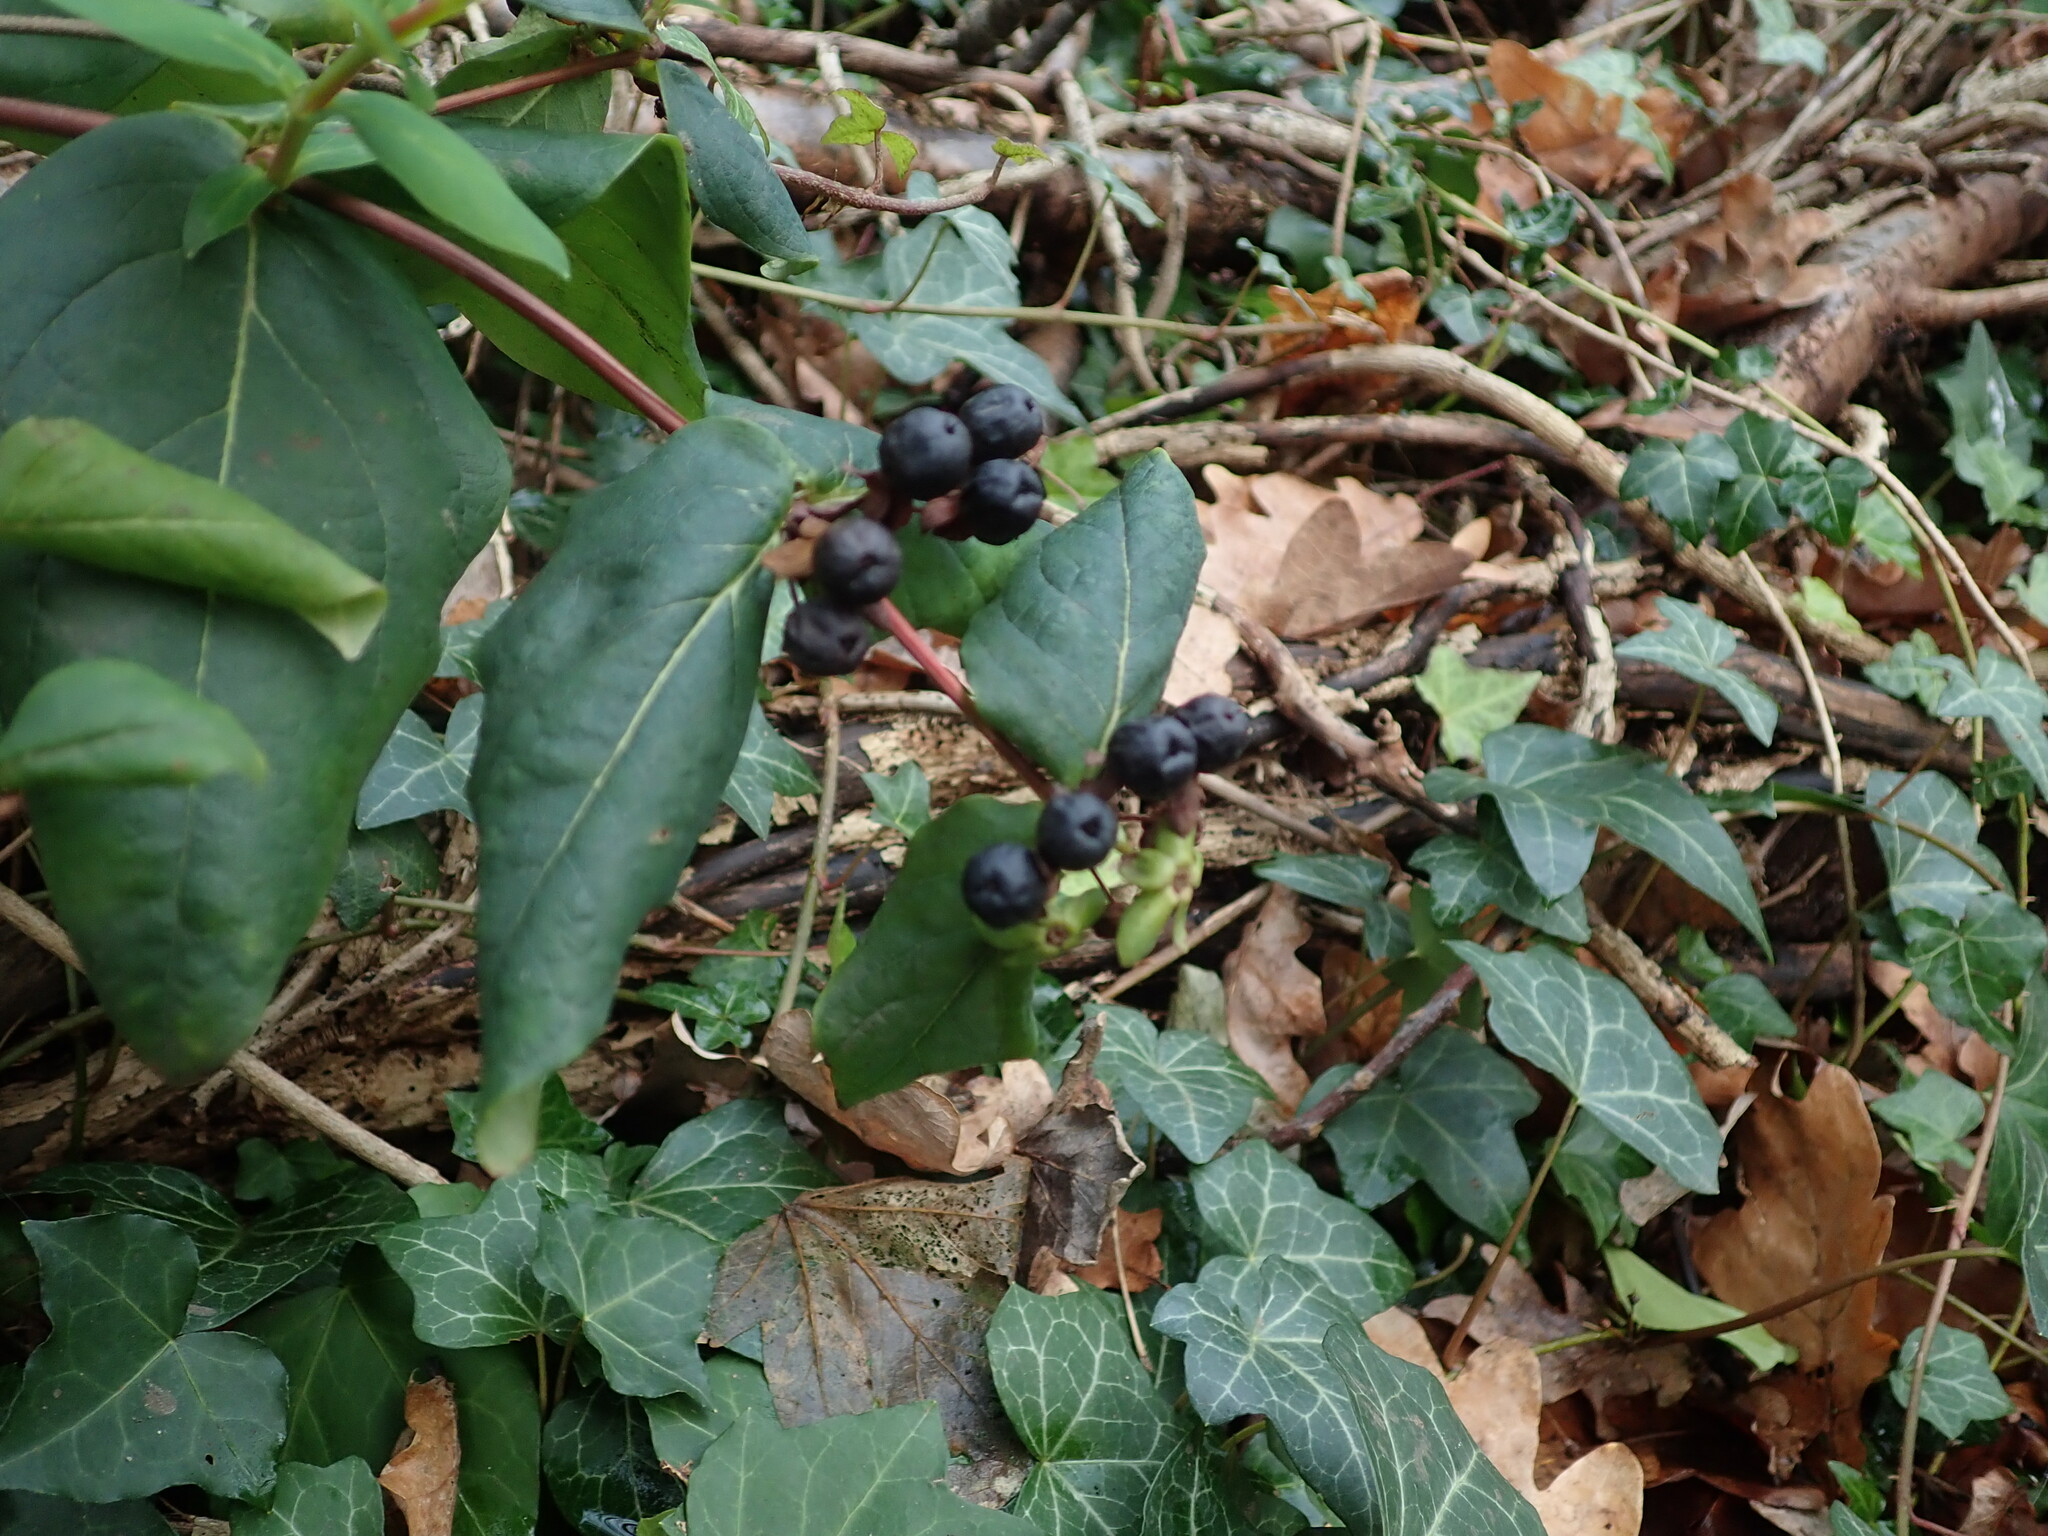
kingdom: Plantae
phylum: Tracheophyta
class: Magnoliopsida
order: Malpighiales
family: Hypericaceae
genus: Hypericum
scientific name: Hypericum androsaemum
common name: Sweet-amber
